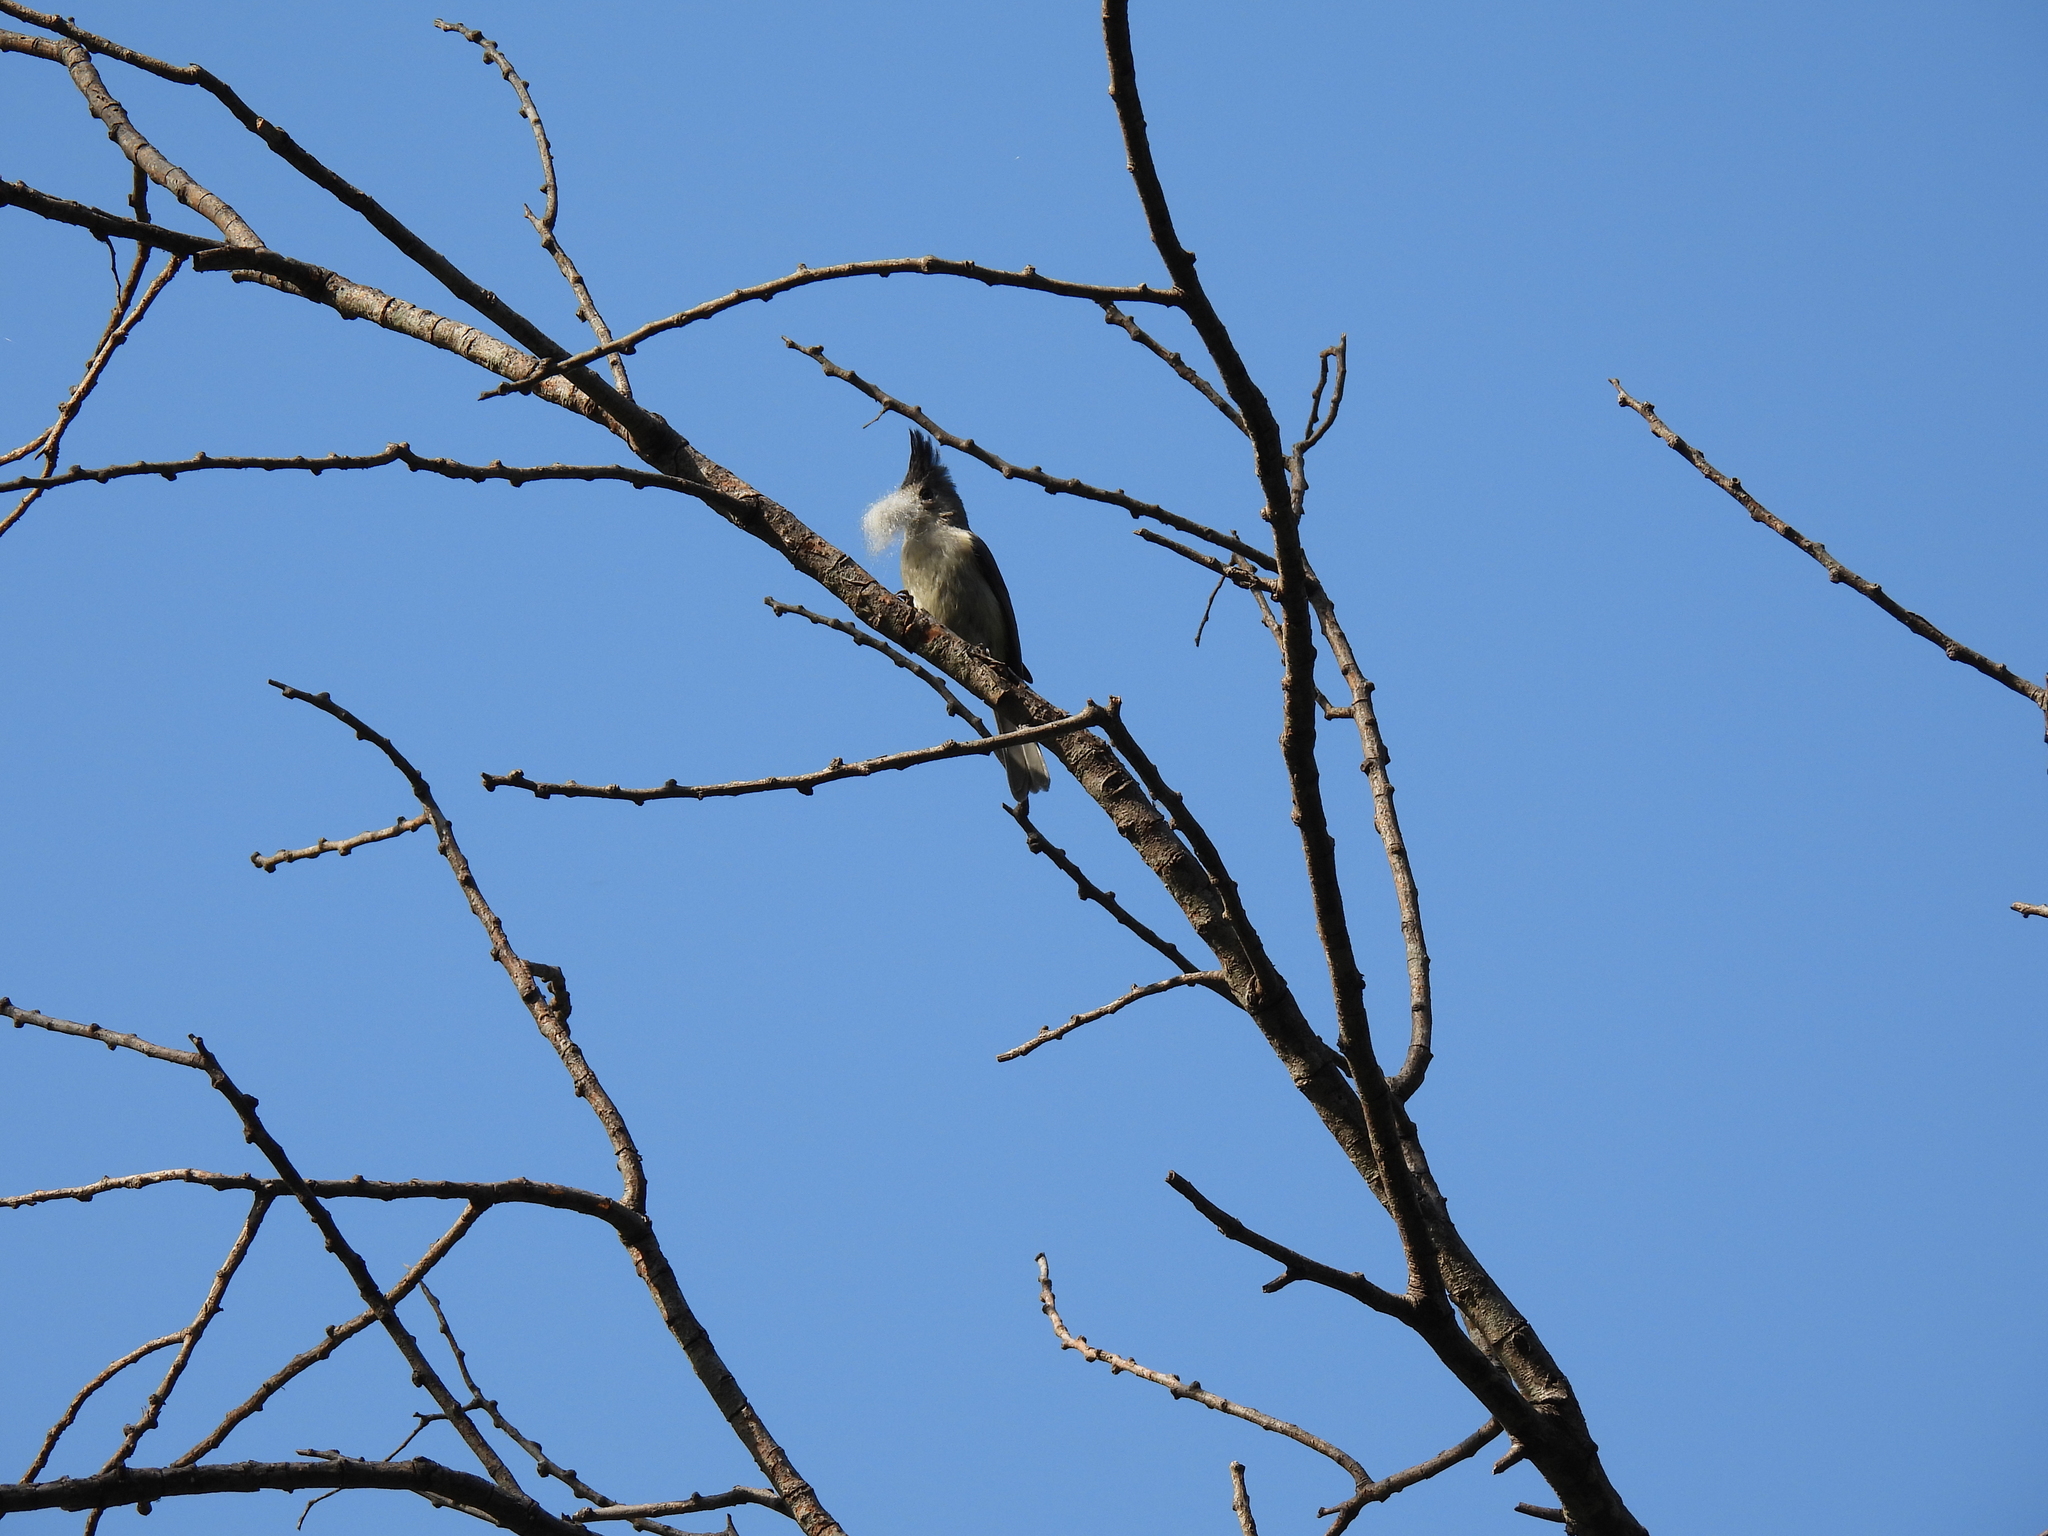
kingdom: Animalia
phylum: Chordata
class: Aves
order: Passeriformes
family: Paridae
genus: Baeolophus
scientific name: Baeolophus atricristatus
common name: Black-crested titmouse
